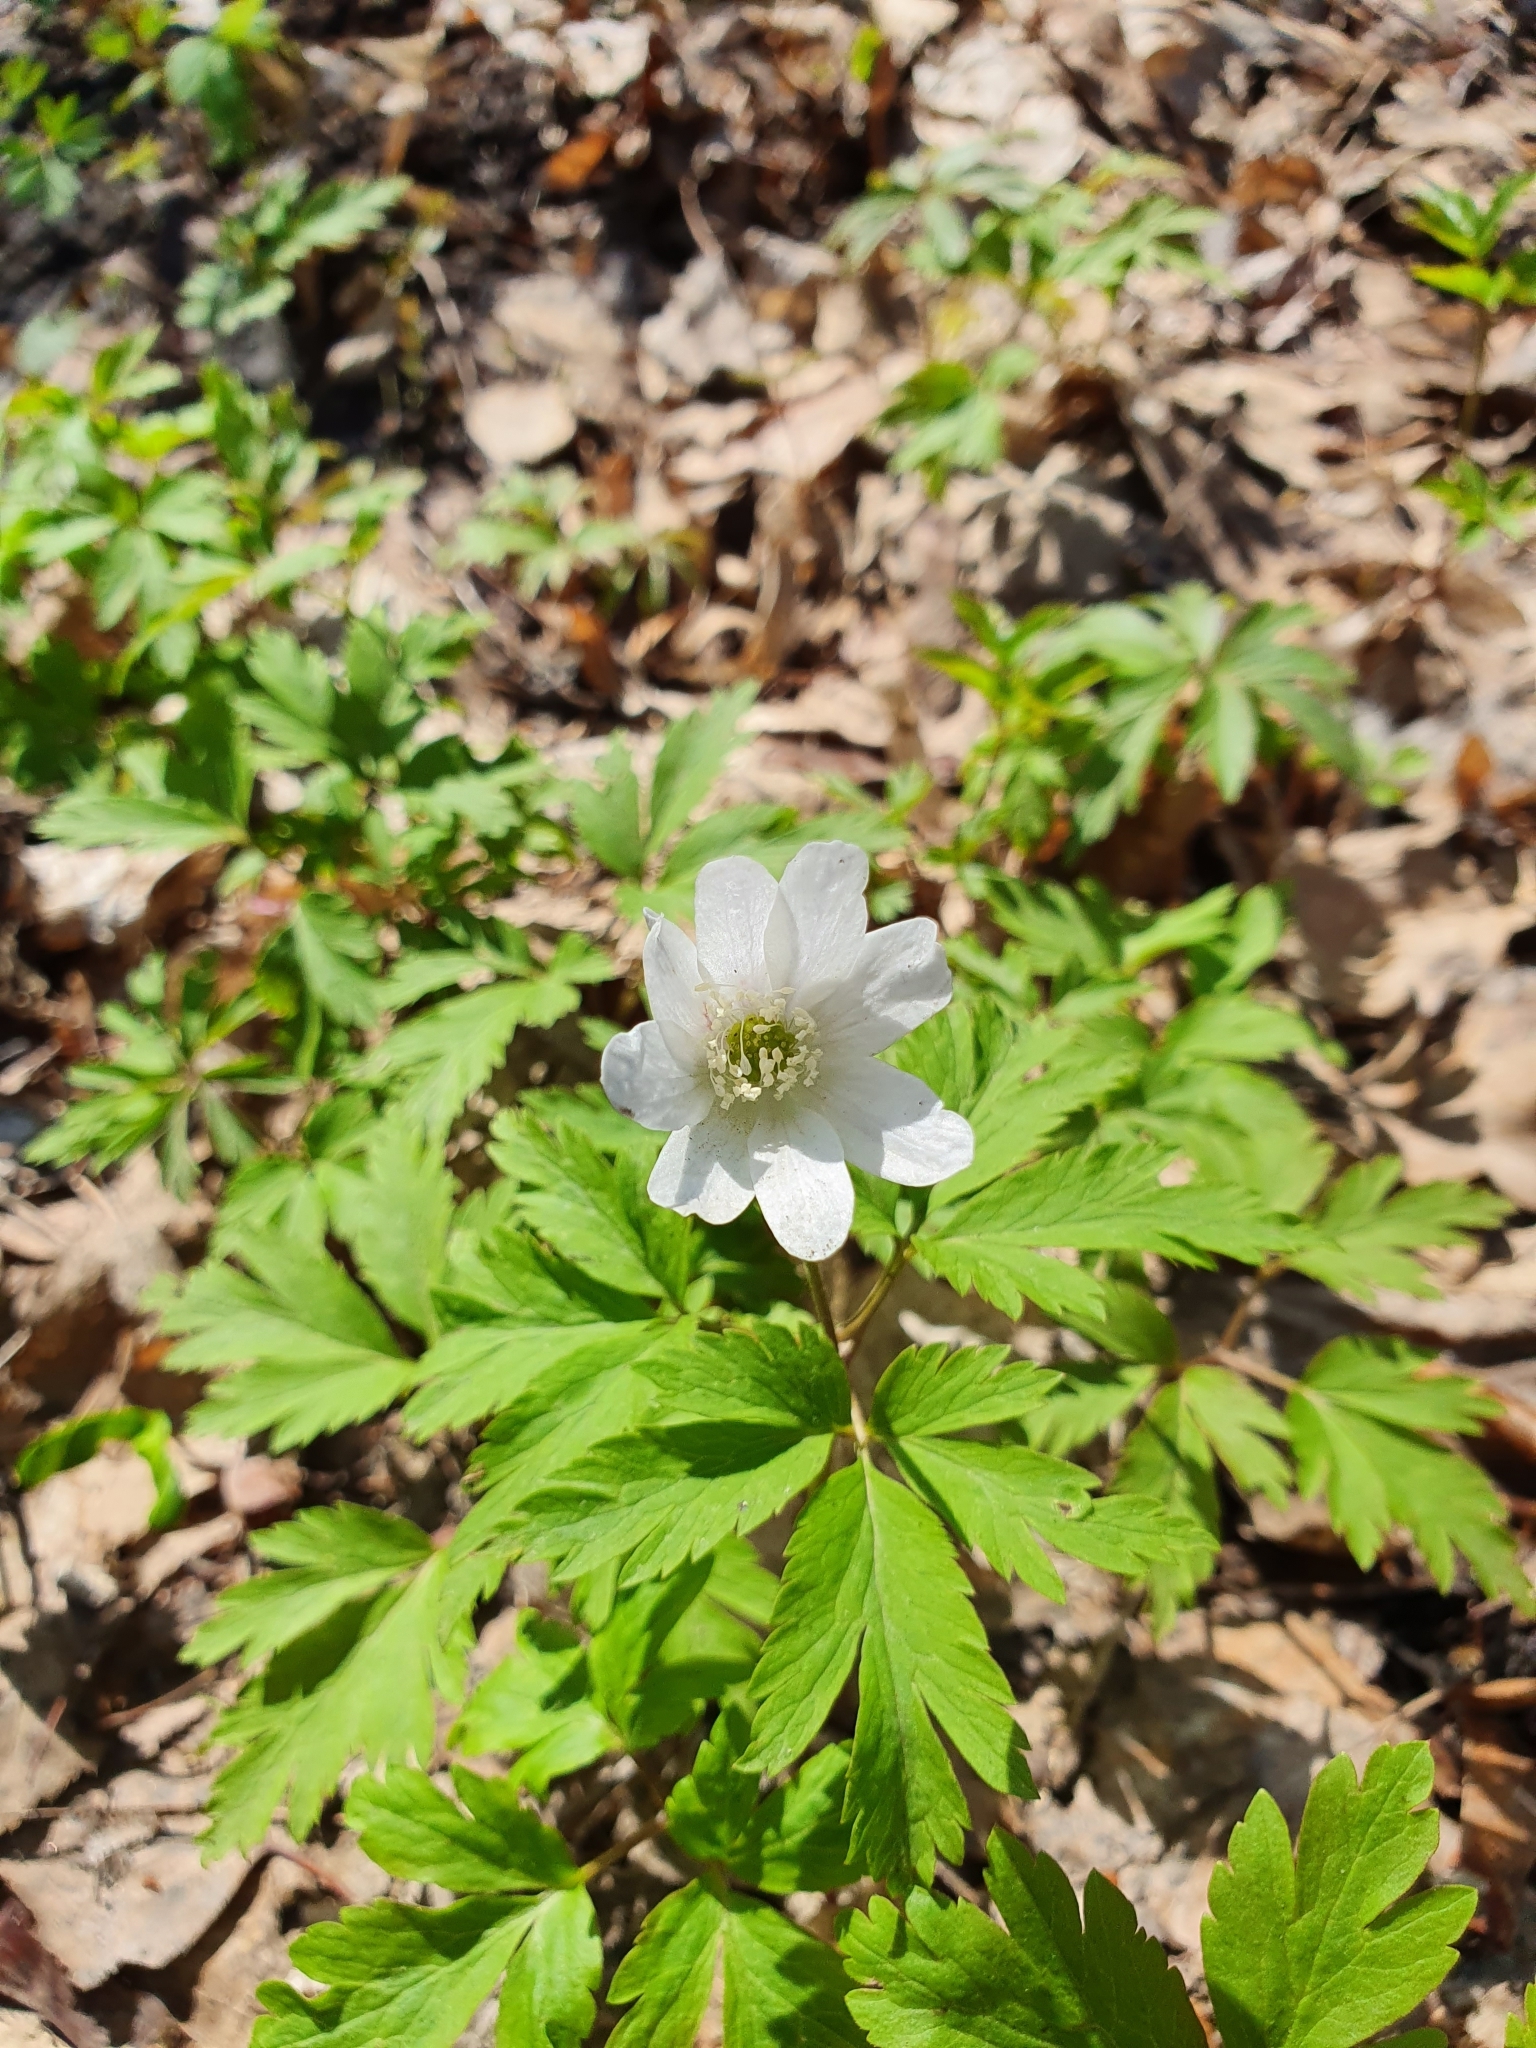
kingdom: Plantae
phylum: Tracheophyta
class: Magnoliopsida
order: Ranunculales
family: Ranunculaceae
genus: Anemone
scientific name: Anemone altaica
